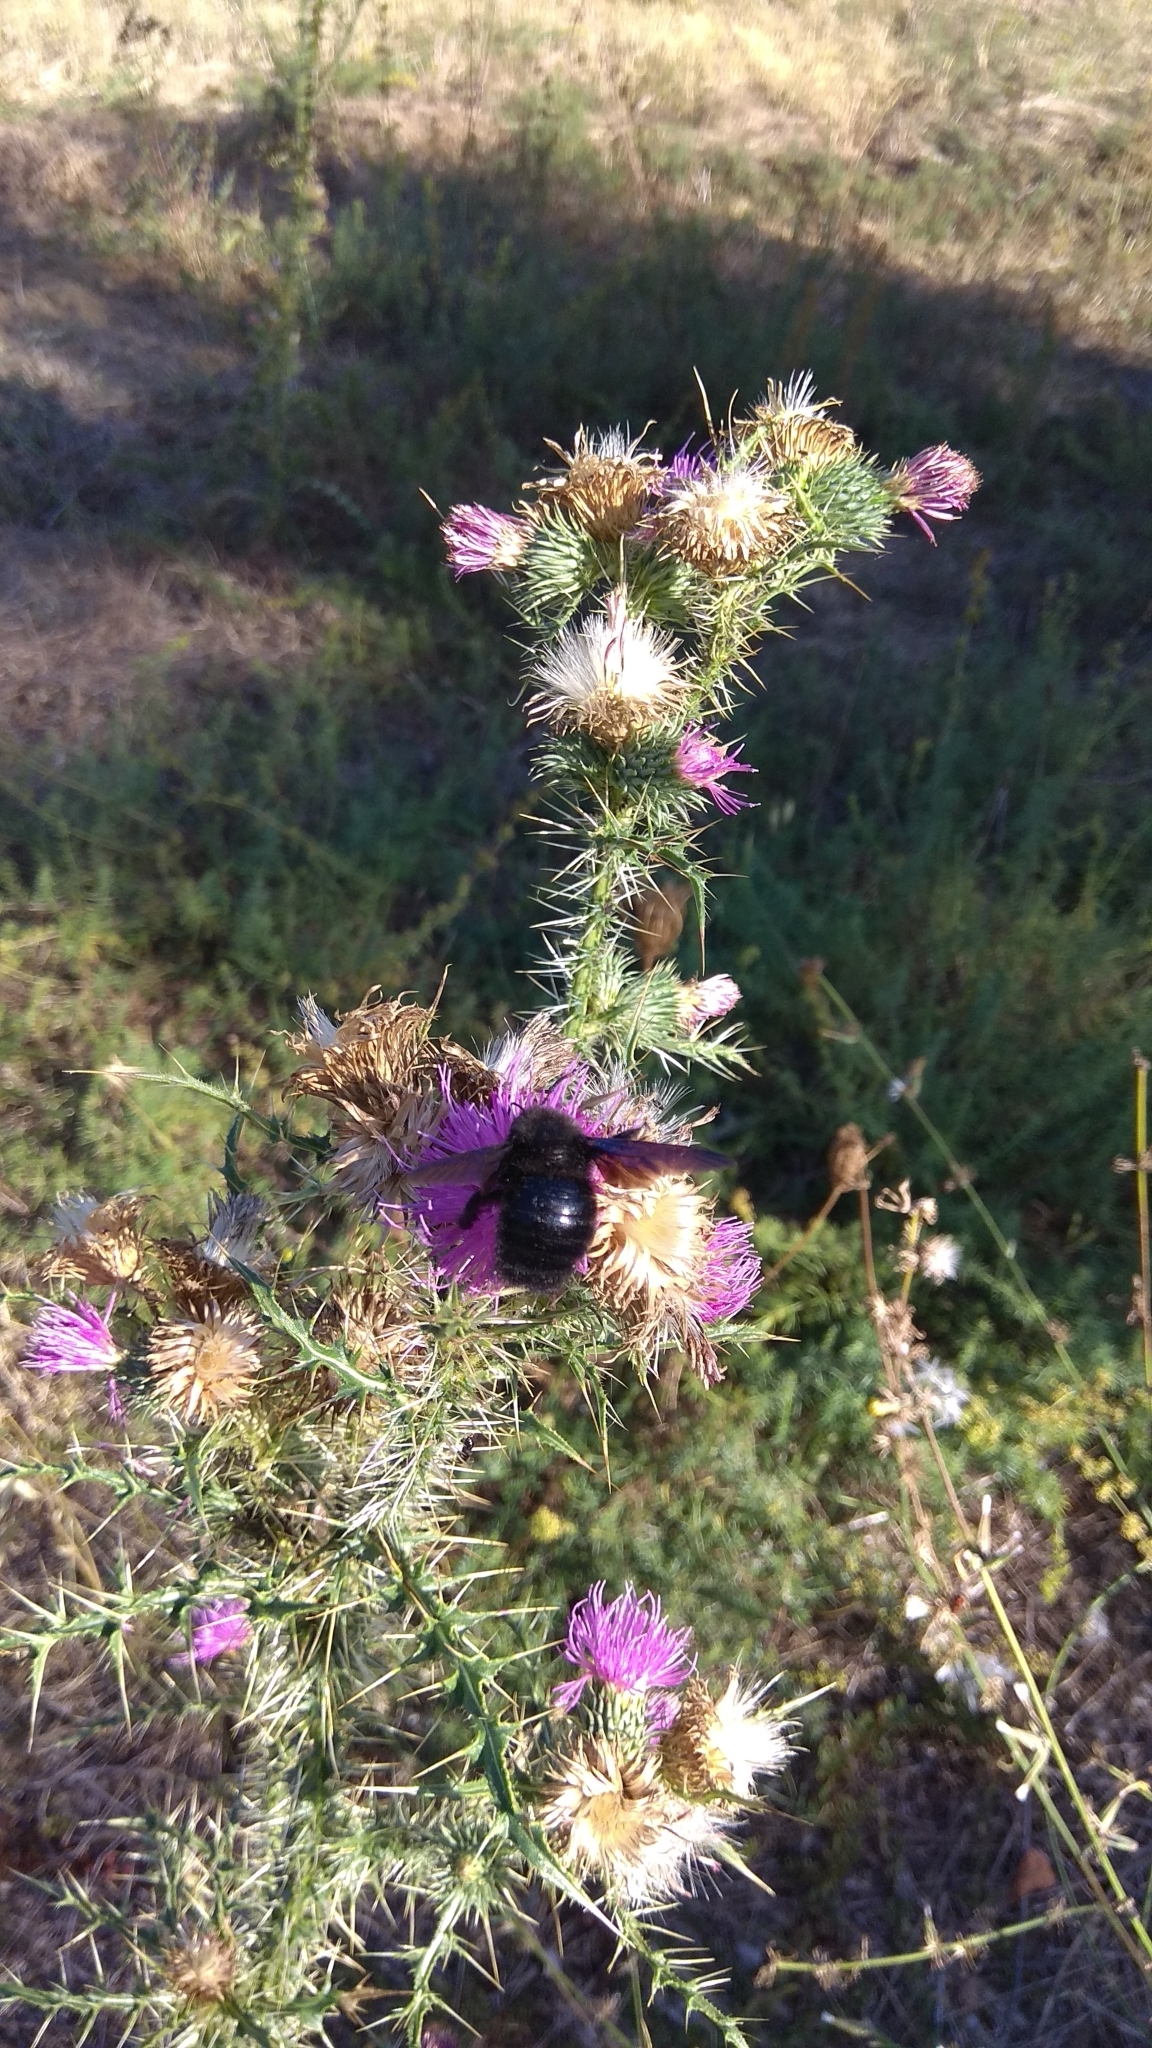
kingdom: Animalia
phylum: Arthropoda
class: Insecta
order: Hymenoptera
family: Apidae
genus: Xylocopa
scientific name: Xylocopa violacea
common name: Violet carpenter bee
